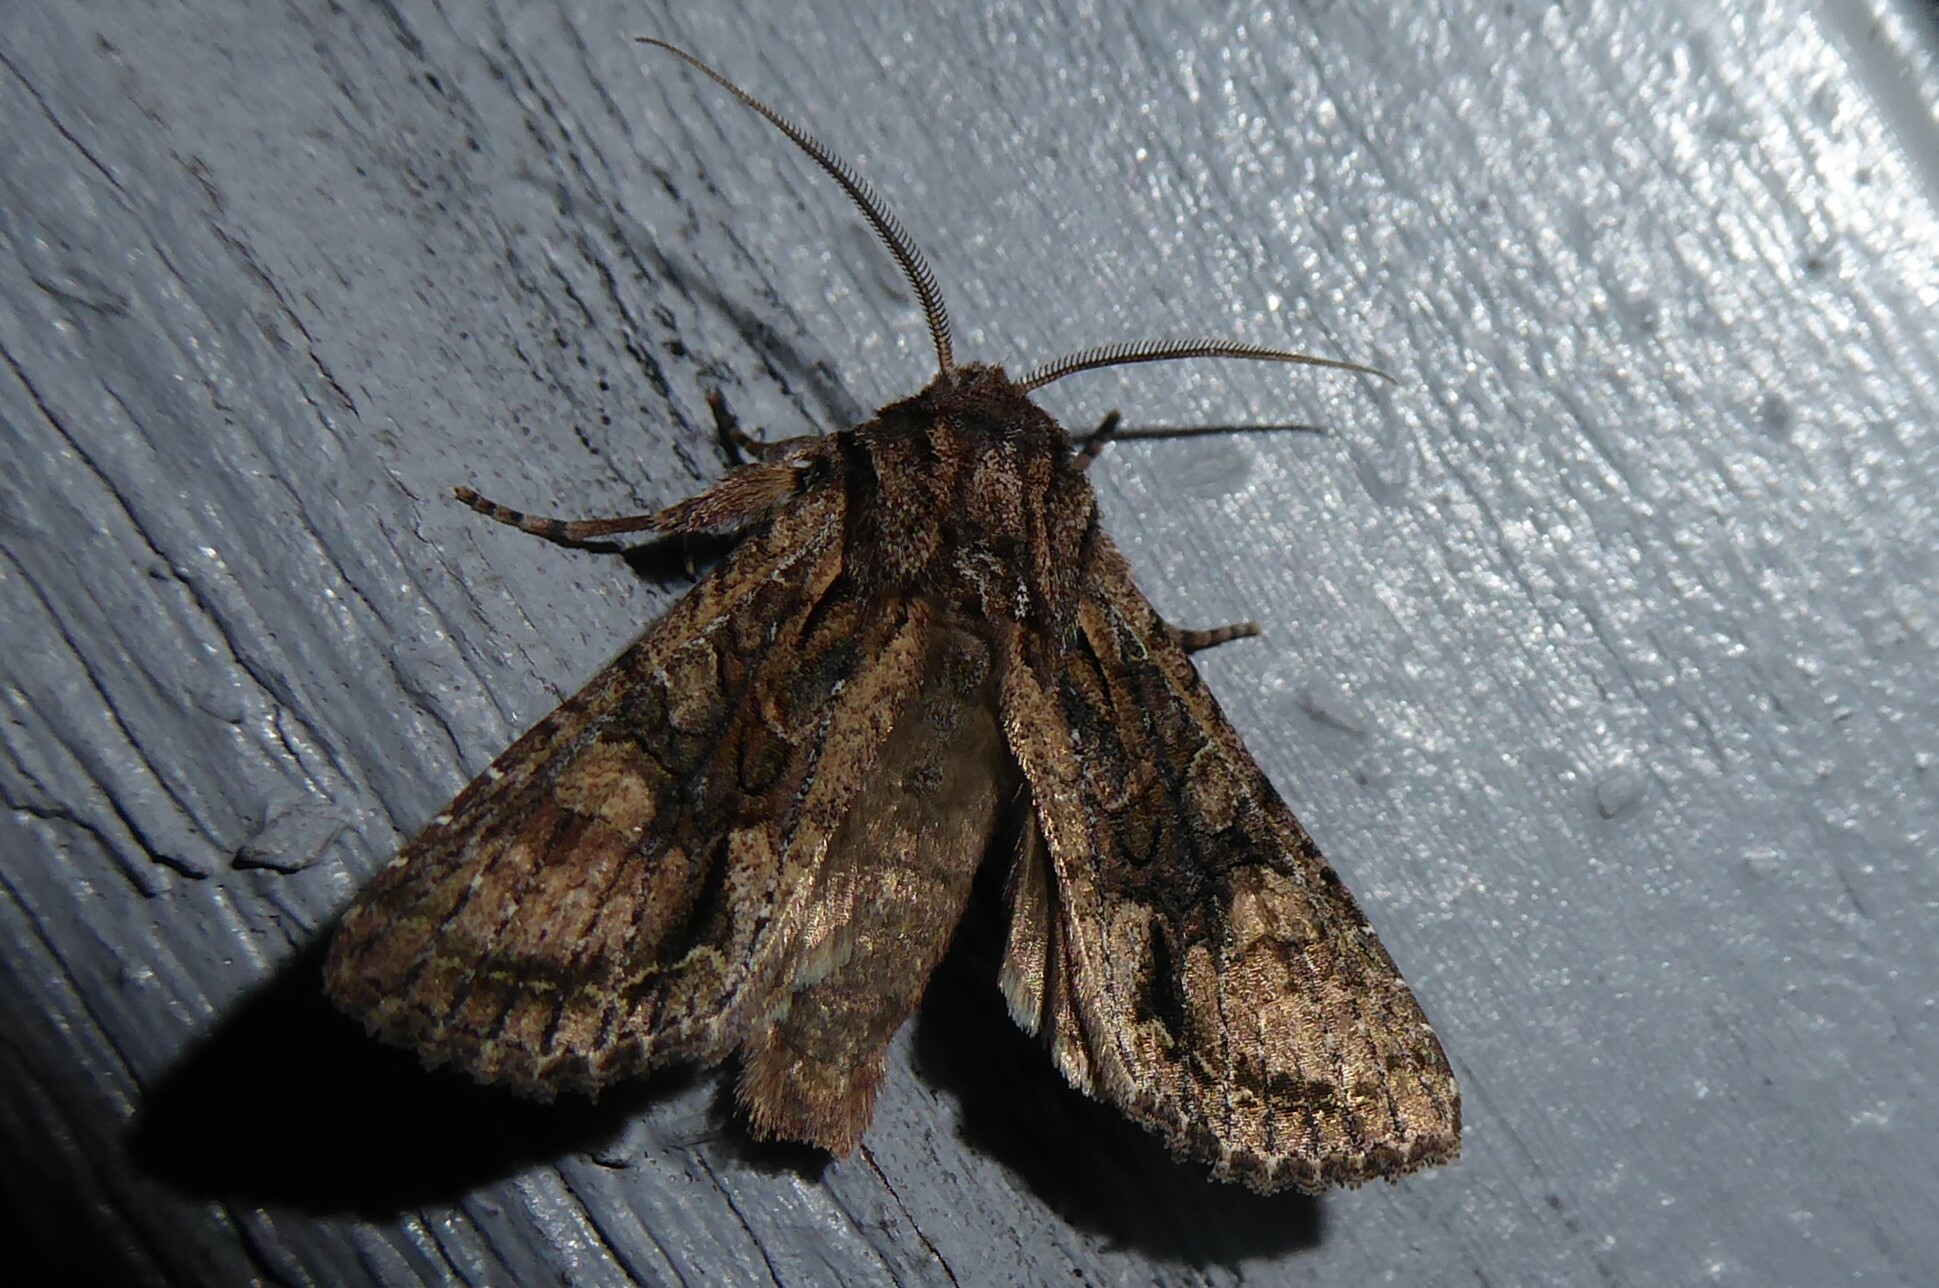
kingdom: Animalia
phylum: Arthropoda
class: Insecta
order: Lepidoptera
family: Noctuidae
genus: Ichneutica
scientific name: Ichneutica mutans
